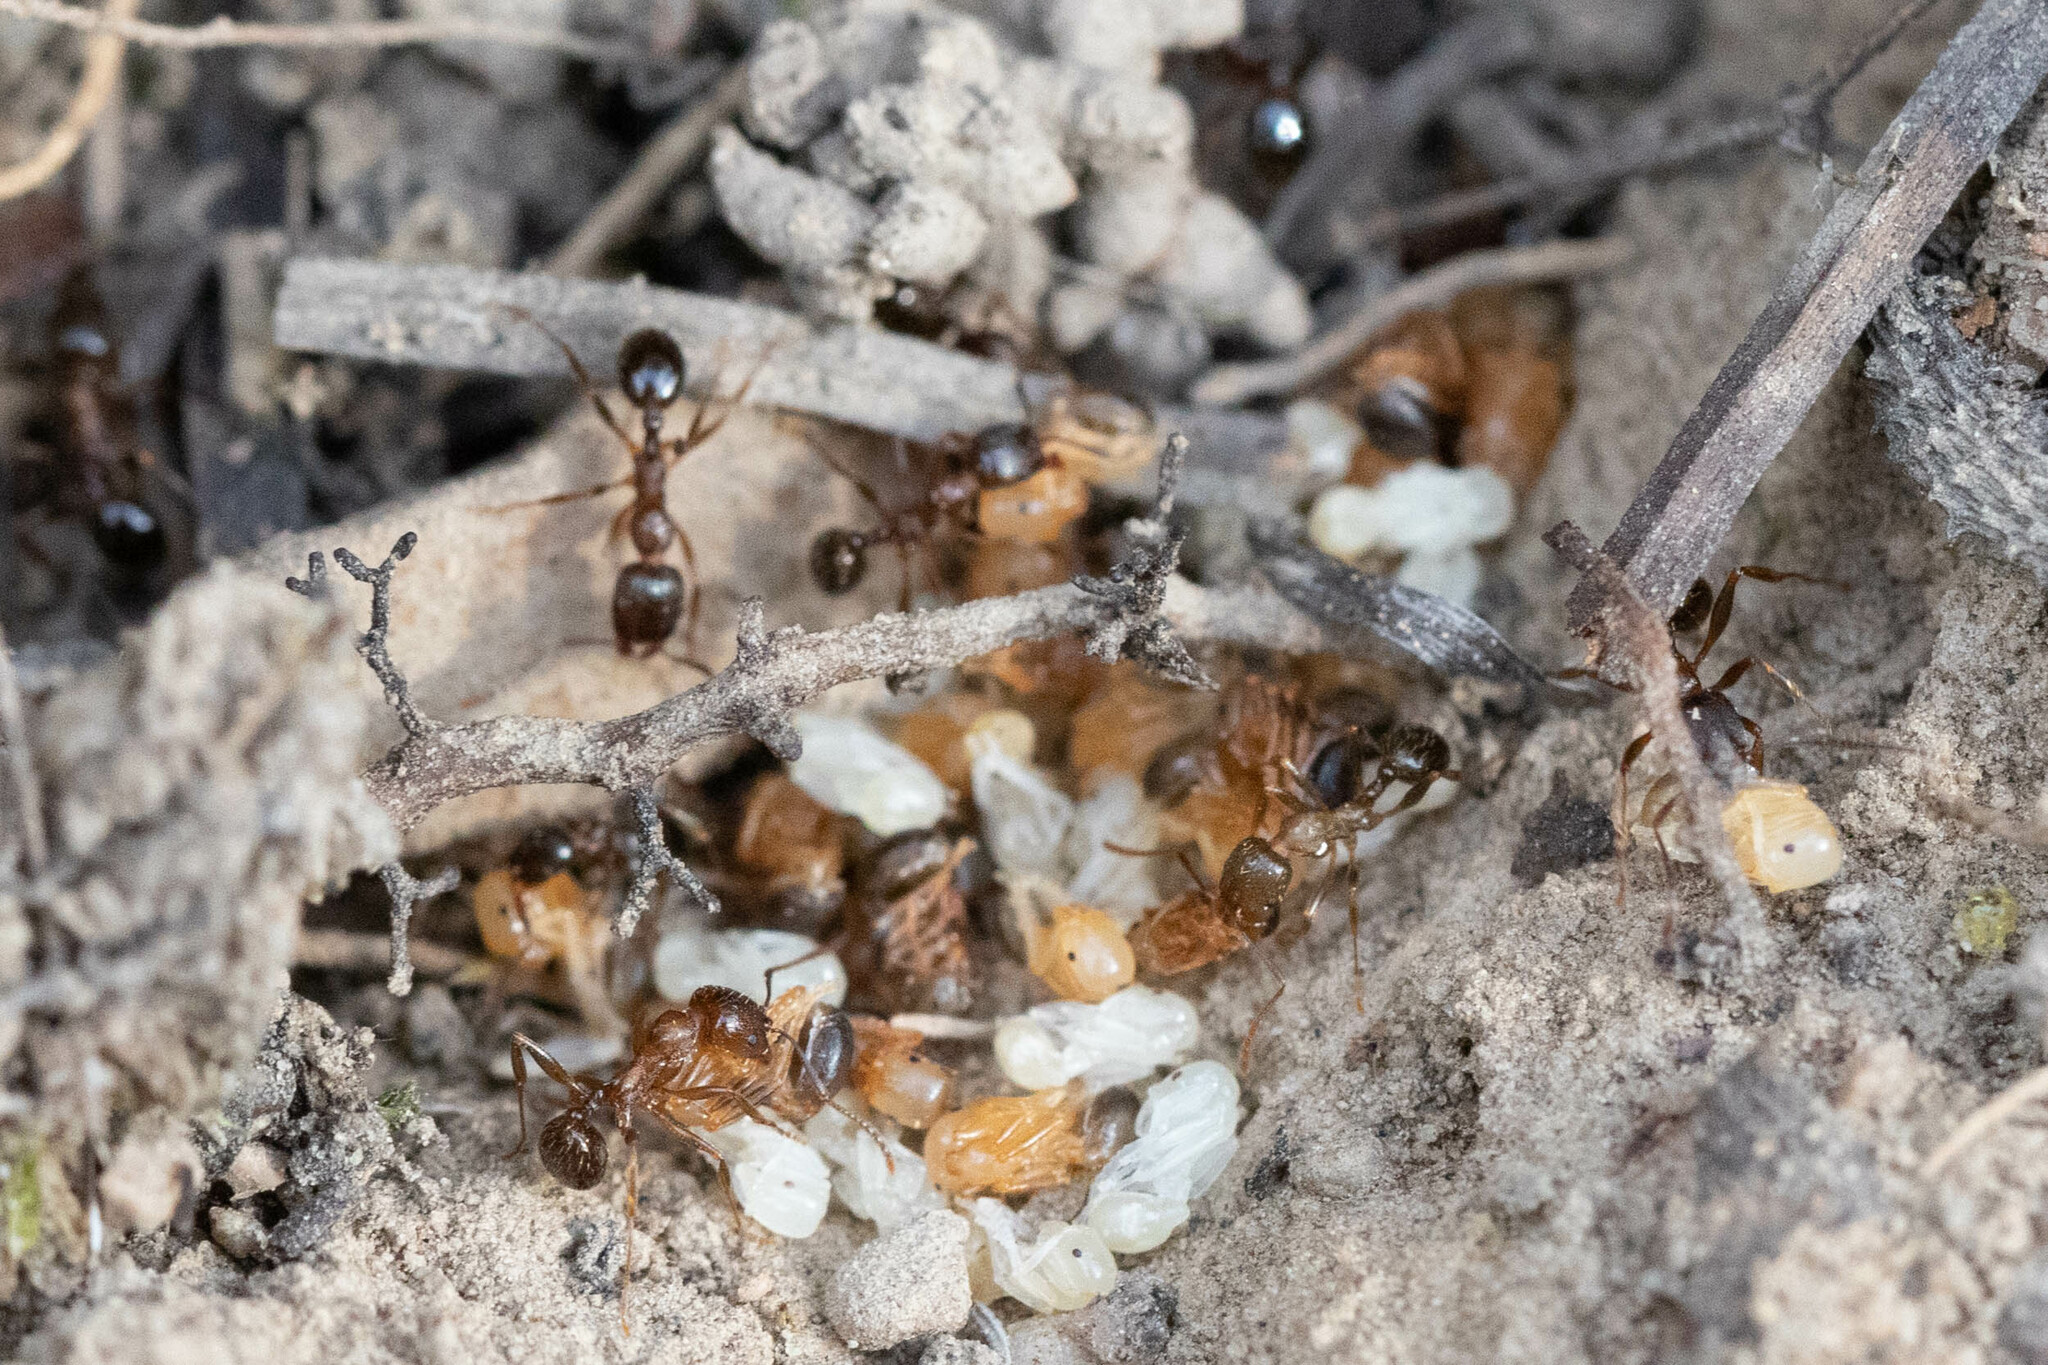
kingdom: Animalia
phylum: Arthropoda
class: Insecta
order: Hymenoptera
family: Formicidae
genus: Aphaenogaster
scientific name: Aphaenogaster occidentalis
